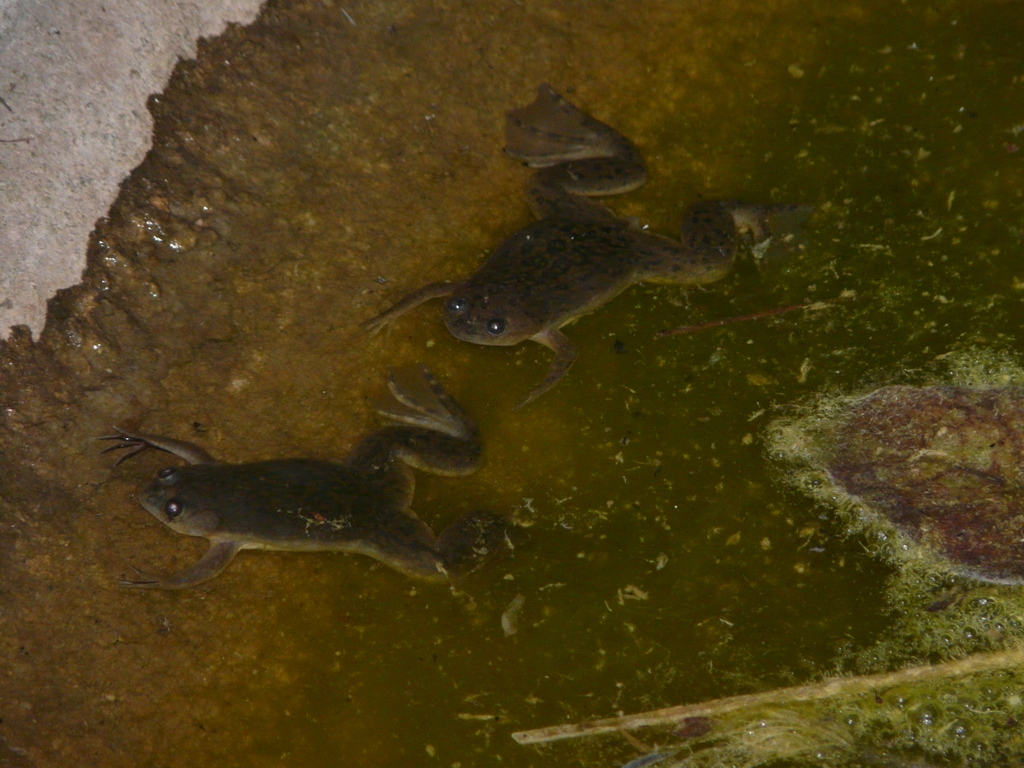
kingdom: Animalia
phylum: Chordata
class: Amphibia
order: Anura
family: Pipidae
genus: Xenopus
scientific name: Xenopus laevis
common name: African clawed frog
